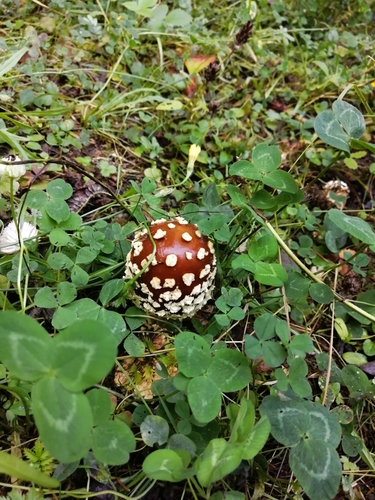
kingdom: Fungi
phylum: Basidiomycota
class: Agaricomycetes
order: Agaricales
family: Amanitaceae
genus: Amanita
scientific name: Amanita muscaria
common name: Fly agaric
